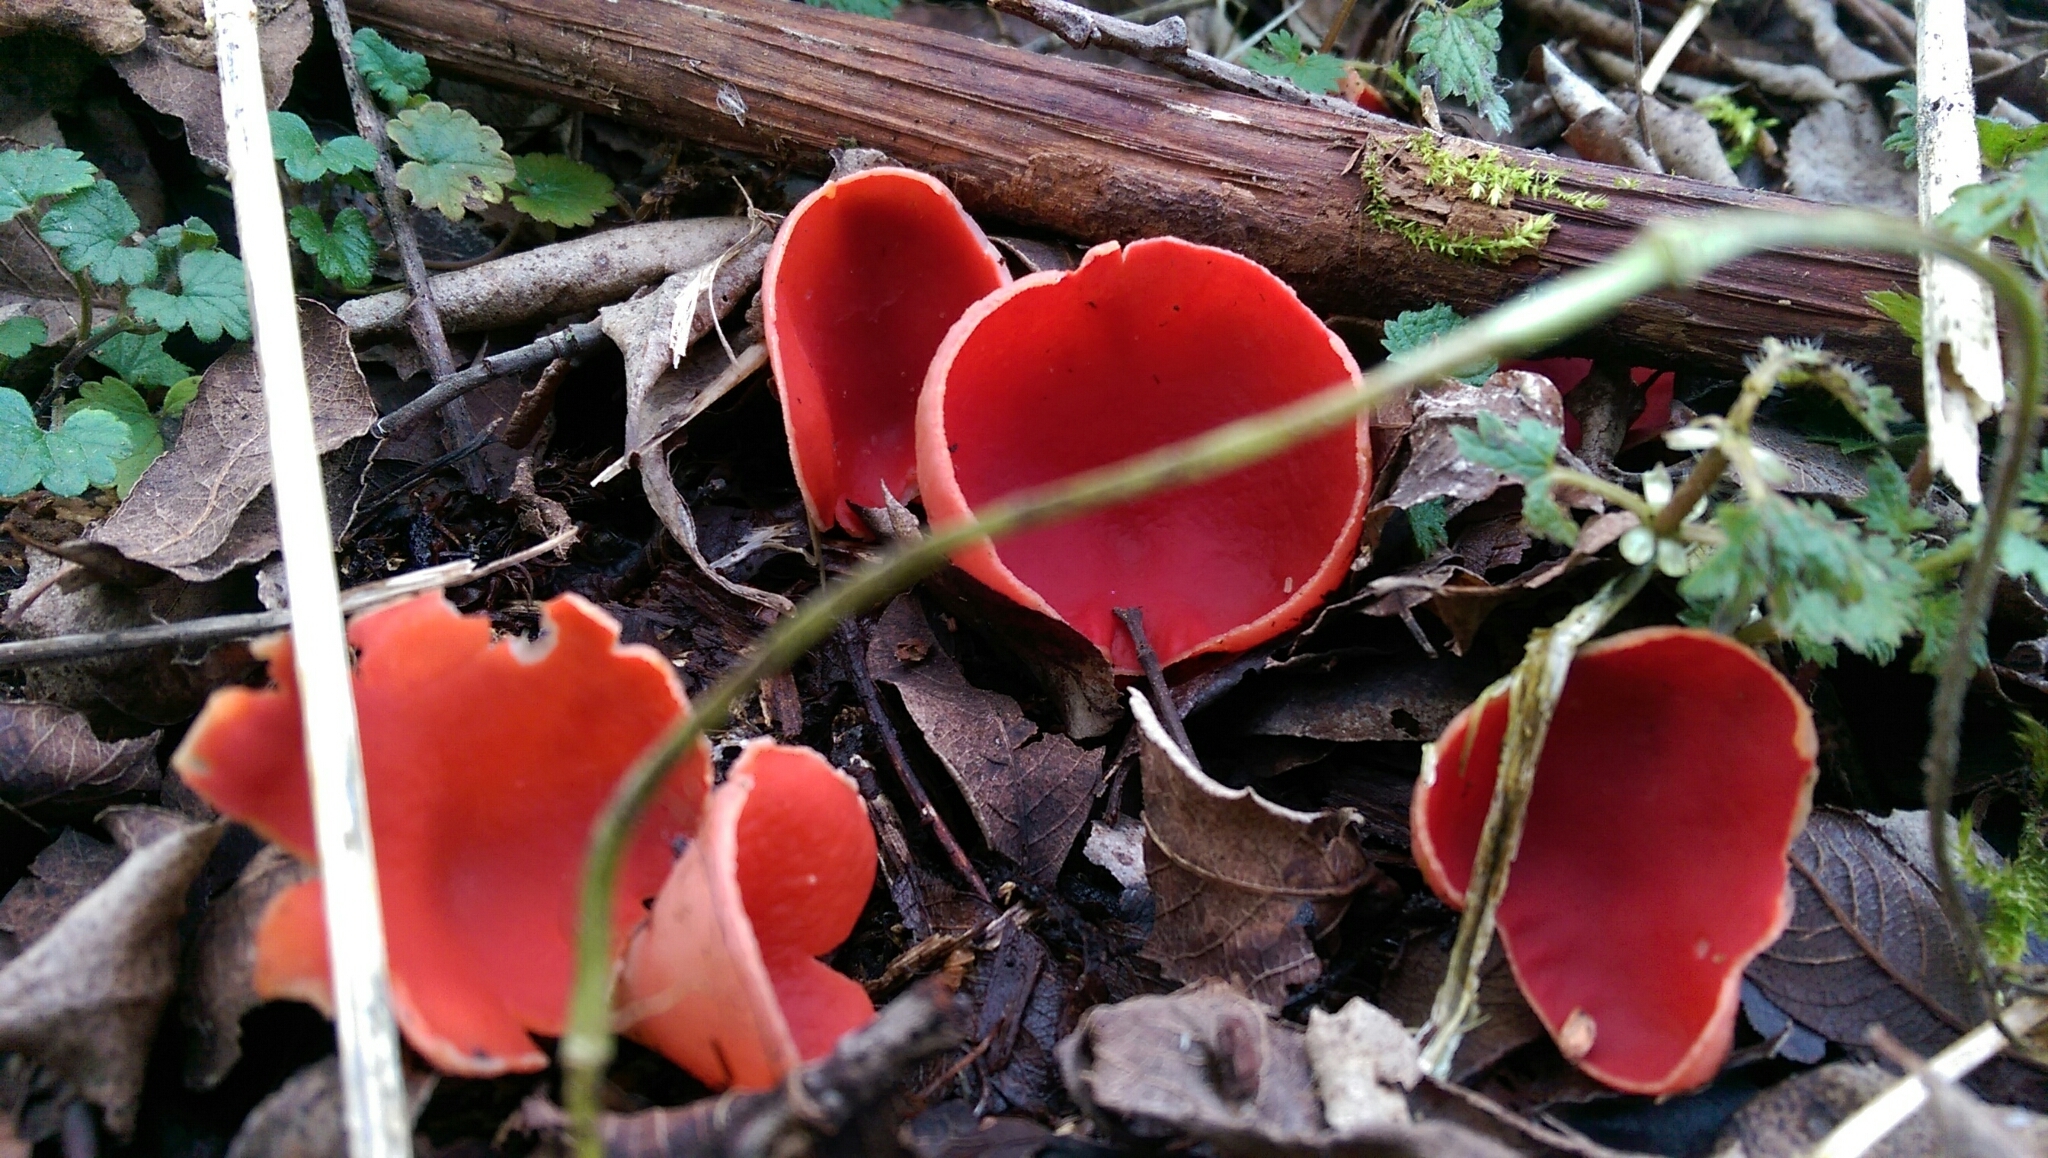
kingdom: Fungi
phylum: Ascomycota
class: Pezizomycetes
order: Pezizales
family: Sarcoscyphaceae
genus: Sarcoscypha
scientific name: Sarcoscypha
